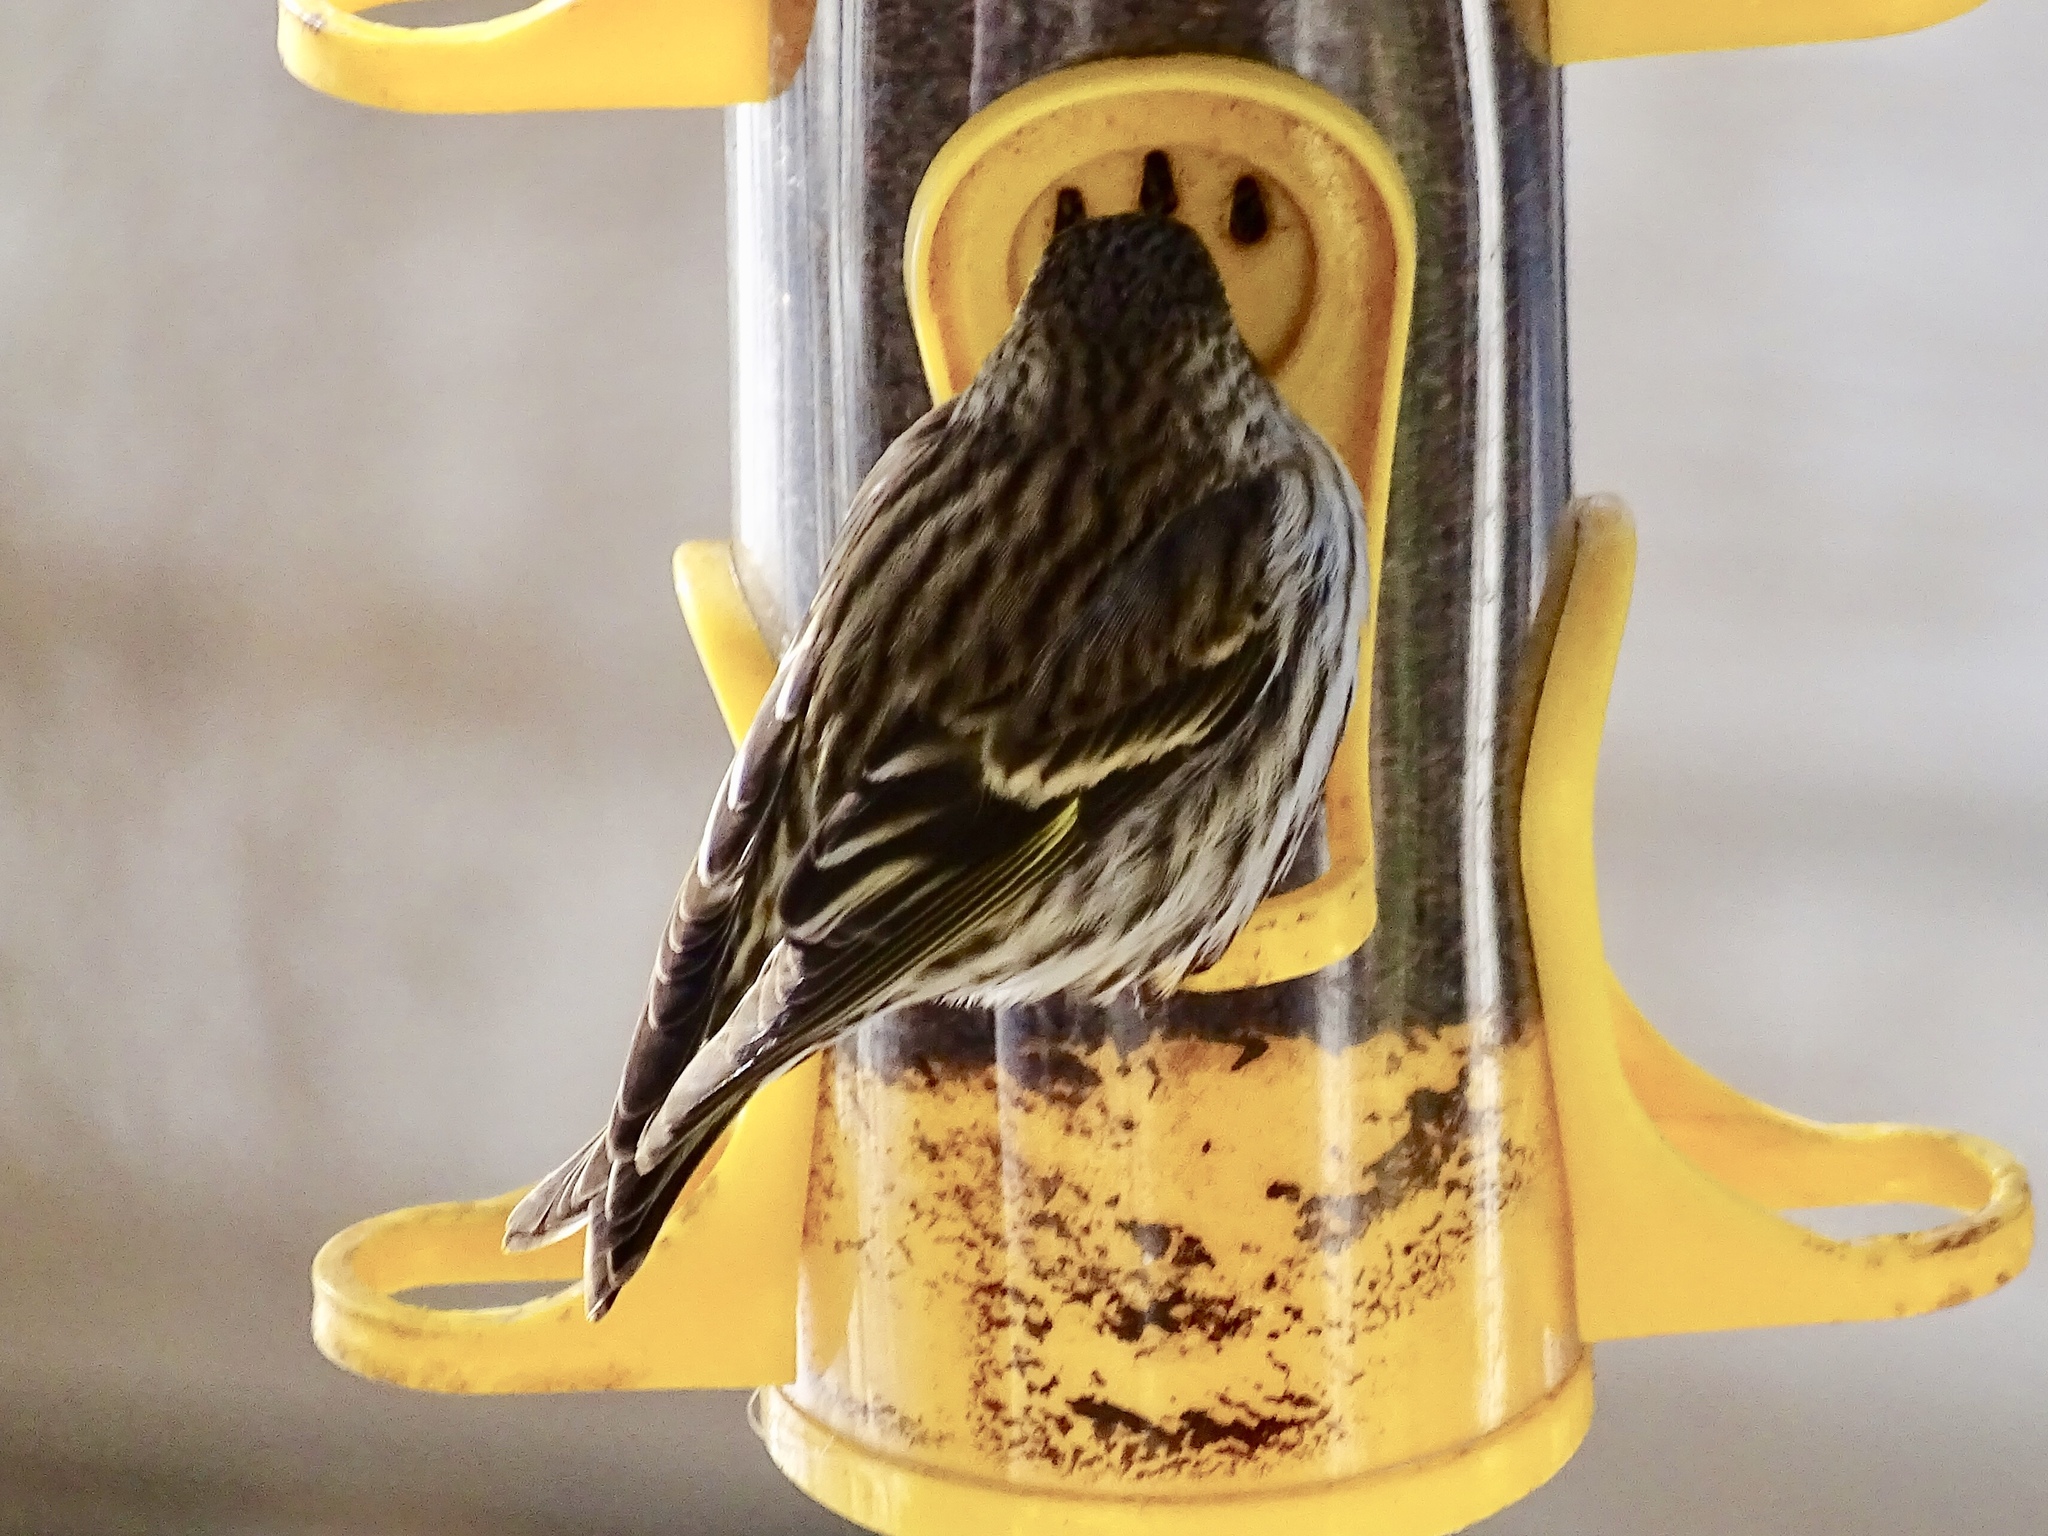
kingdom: Animalia
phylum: Chordata
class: Aves
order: Passeriformes
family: Fringillidae
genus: Spinus
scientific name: Spinus pinus
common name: Pine siskin
